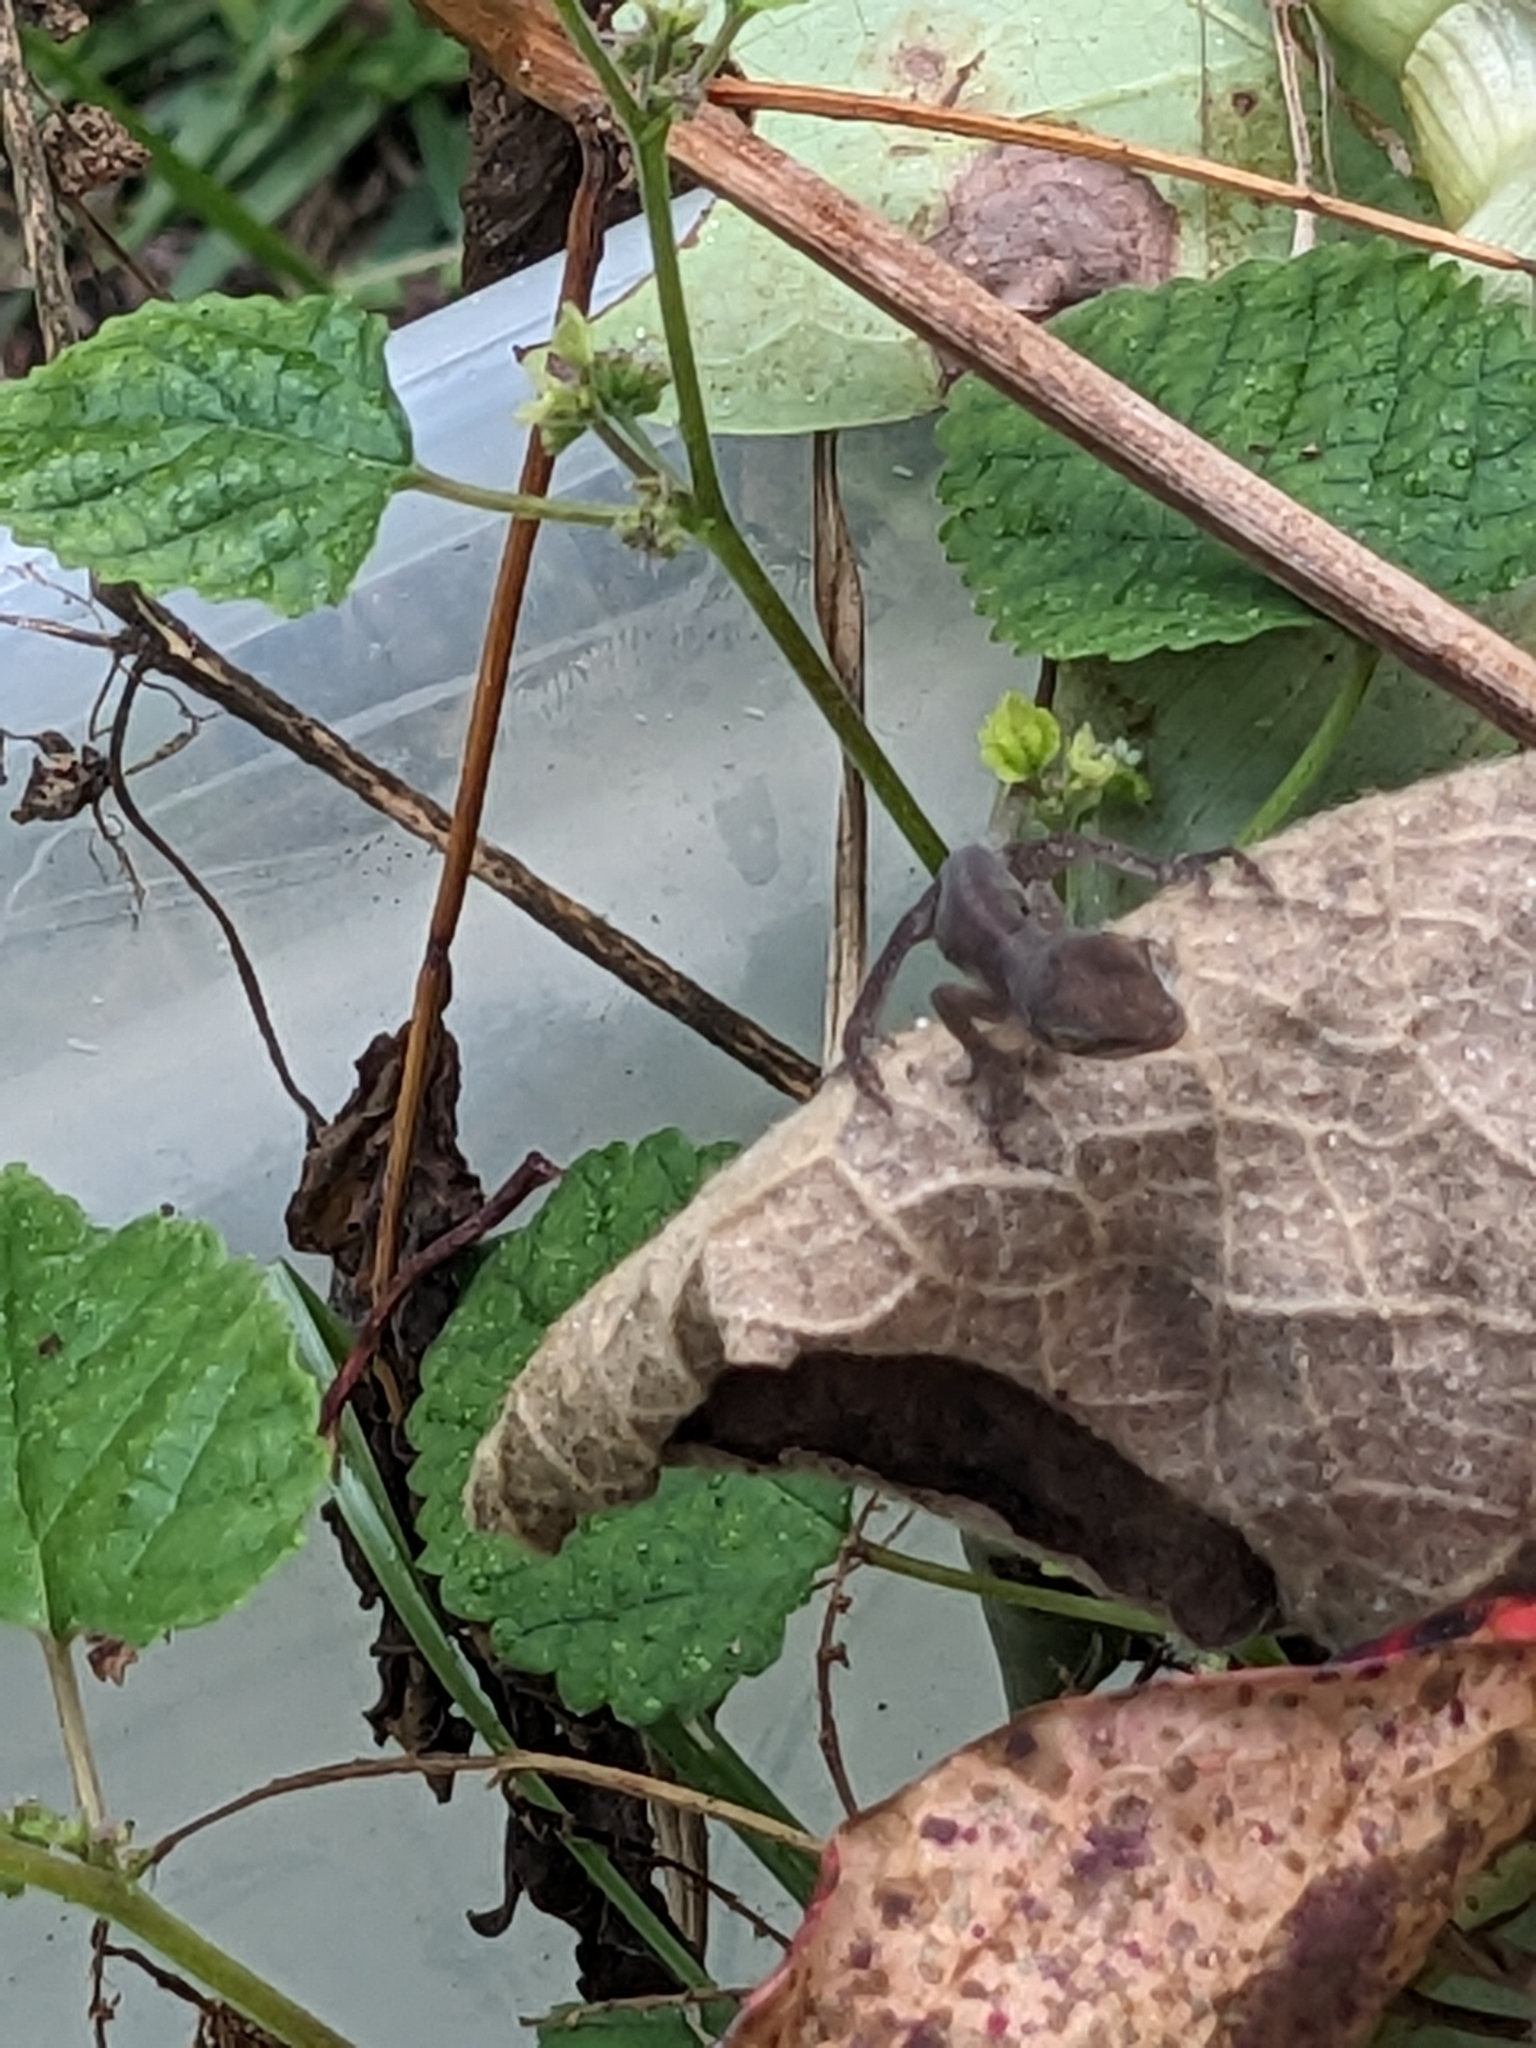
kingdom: Animalia
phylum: Chordata
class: Squamata
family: Dactyloidae
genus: Anolis
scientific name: Anolis carolinensis
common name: Green anole
